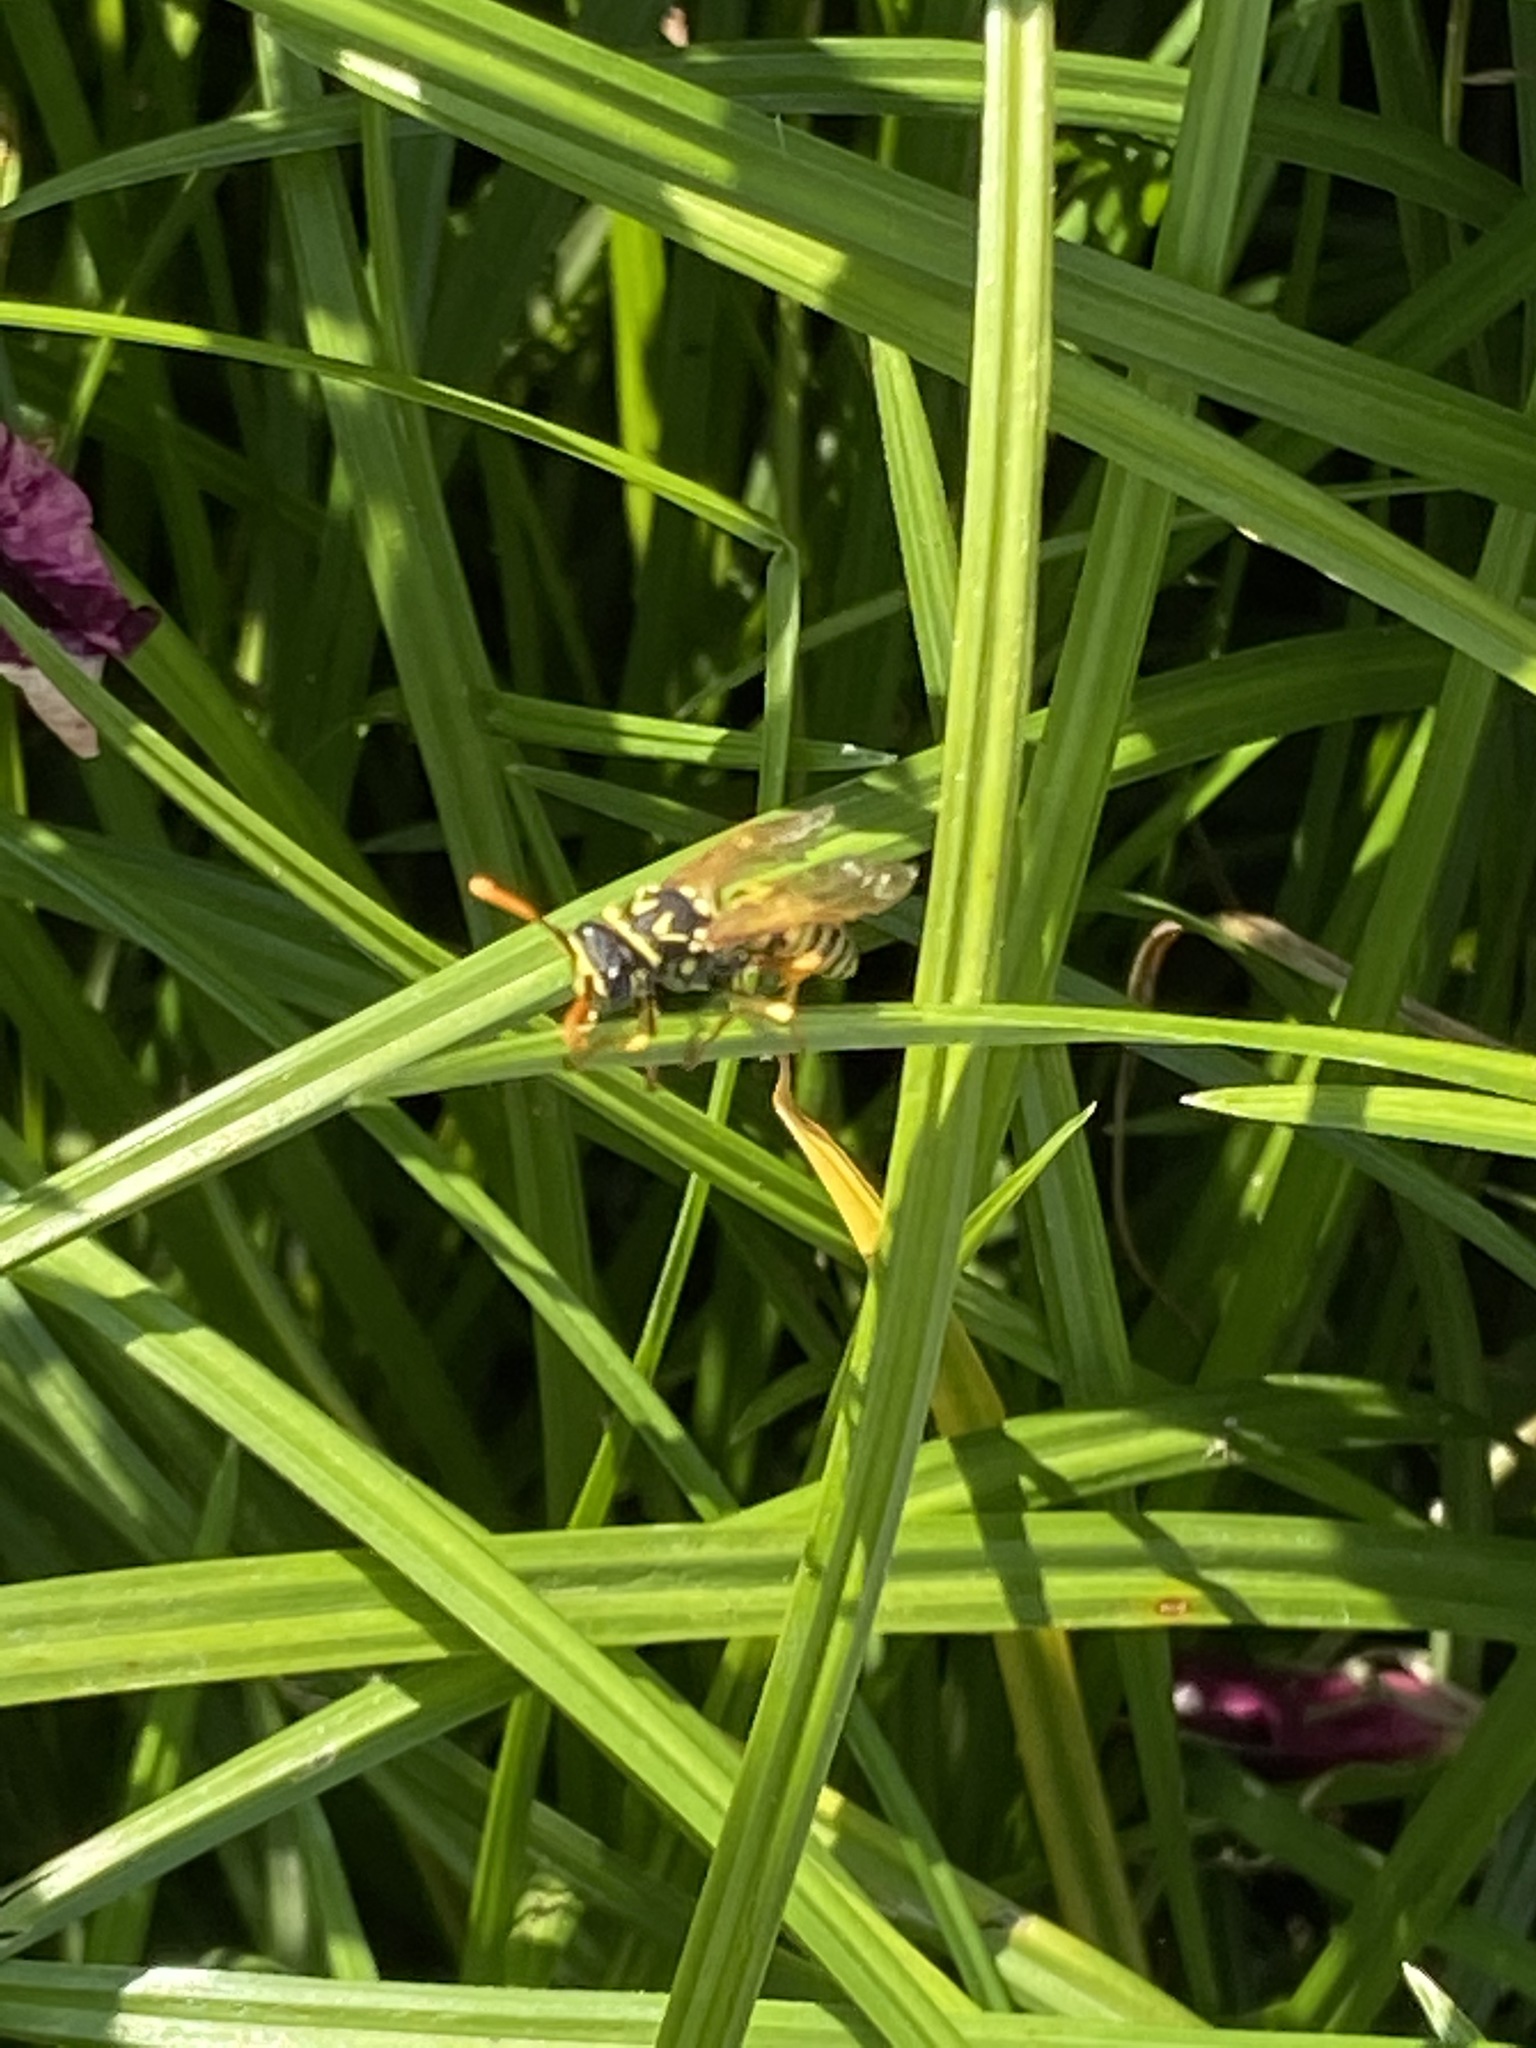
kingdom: Animalia
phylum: Arthropoda
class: Insecta
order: Hymenoptera
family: Eumenidae
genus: Polistes
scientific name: Polistes dominula
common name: Paper wasp
